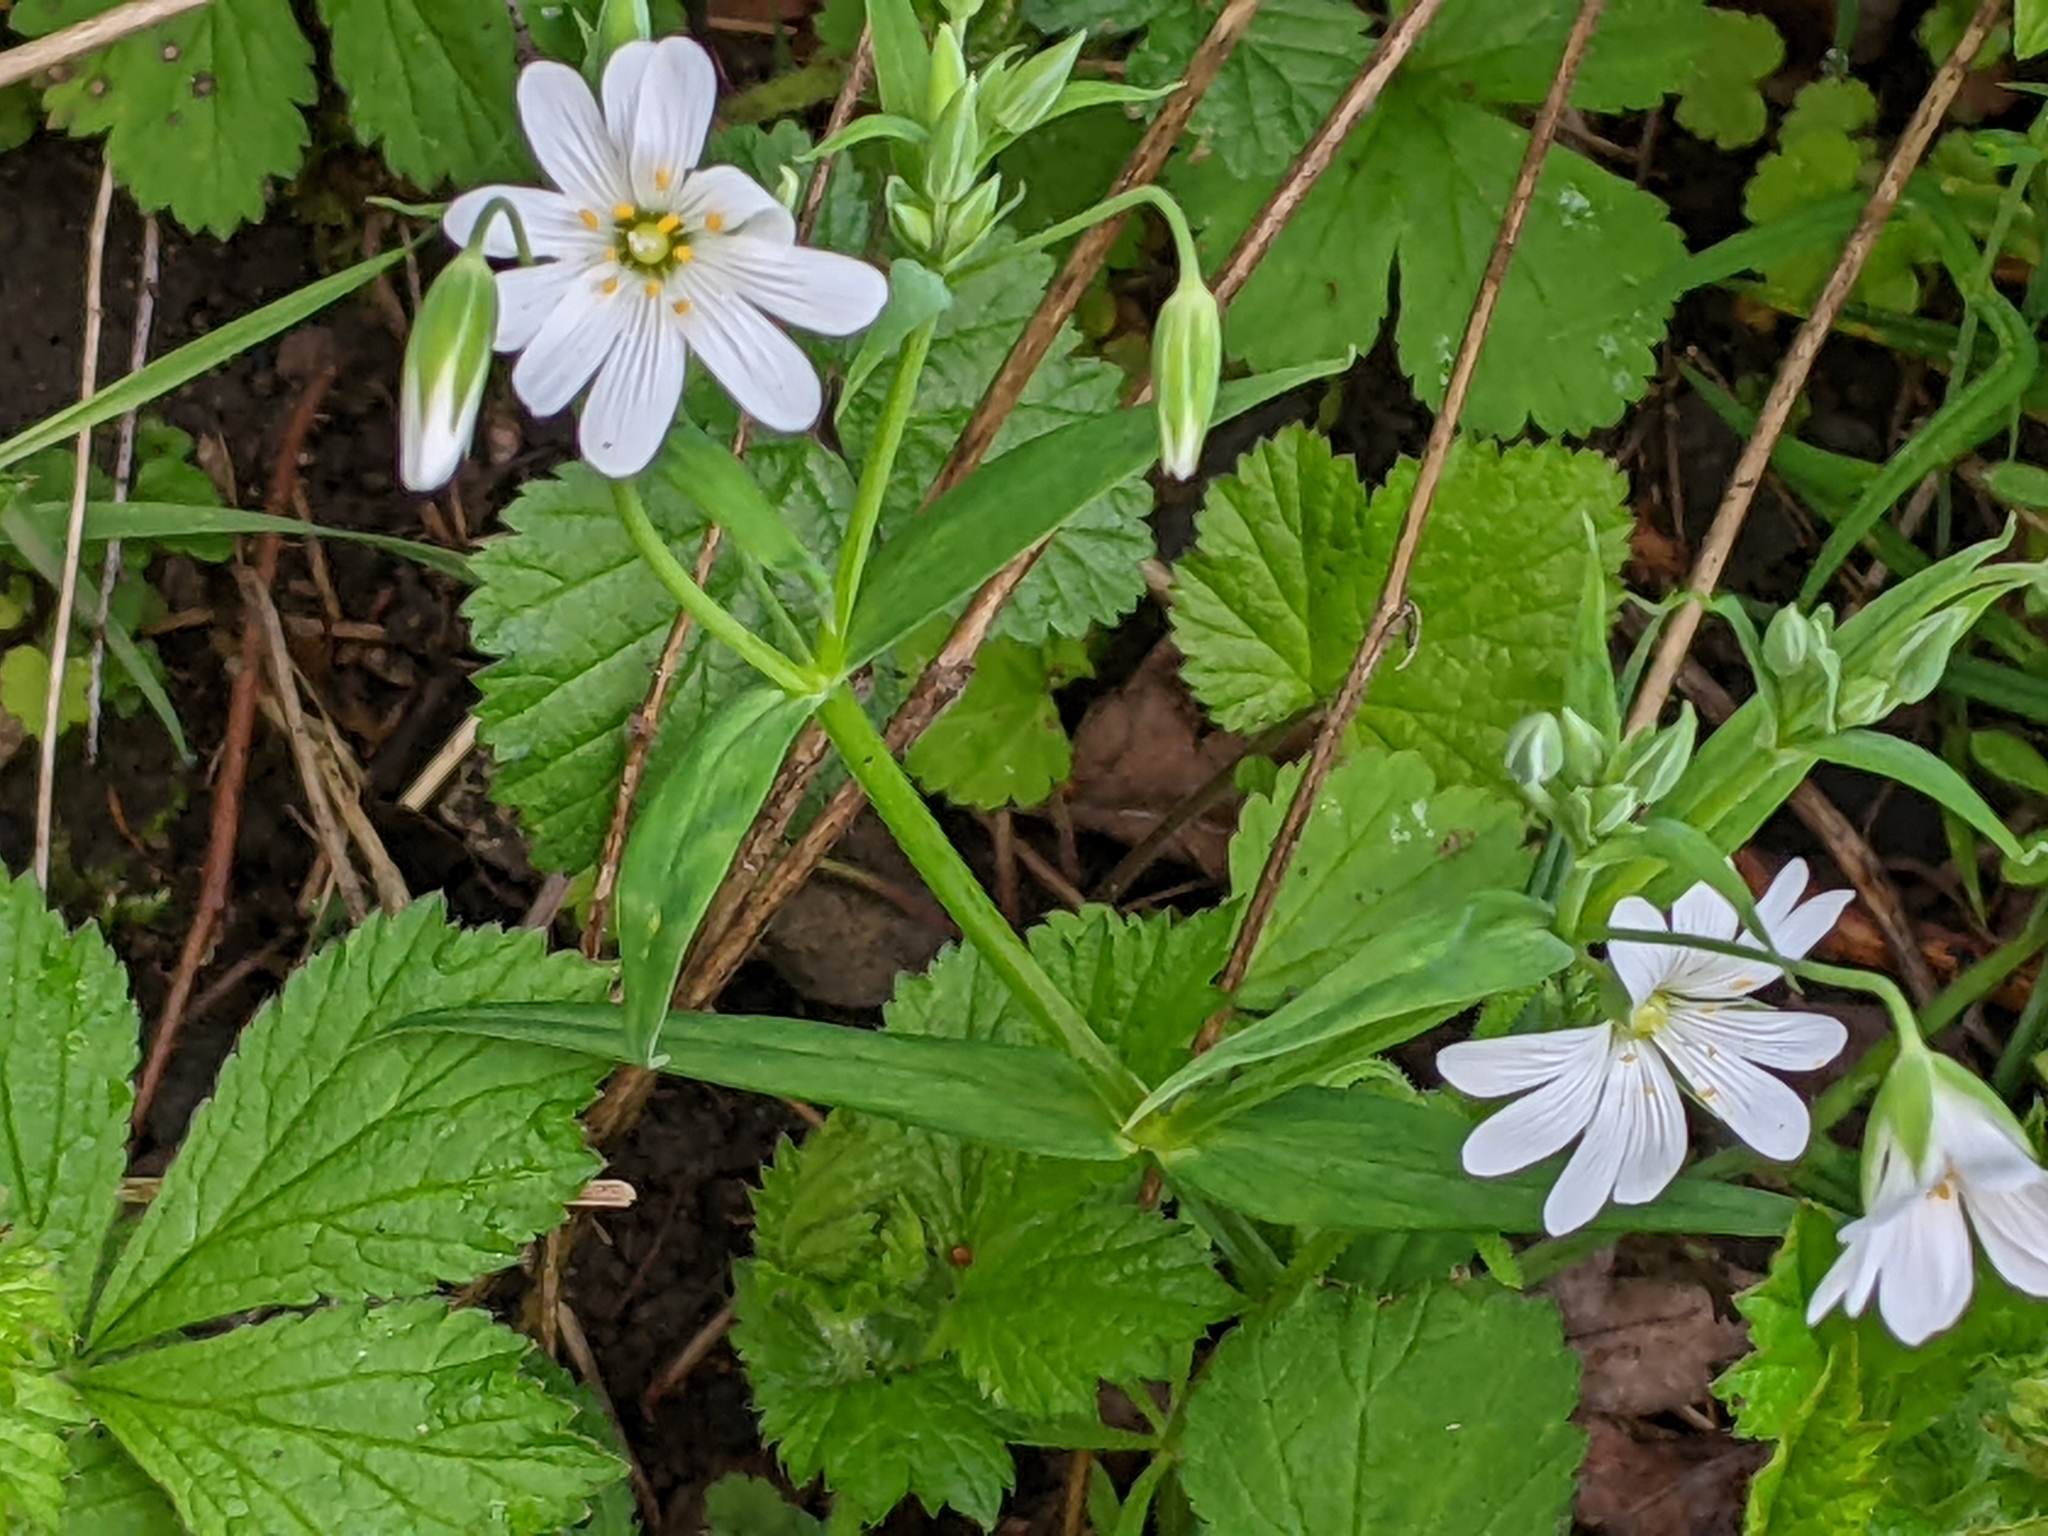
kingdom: Plantae
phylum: Tracheophyta
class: Magnoliopsida
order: Caryophyllales
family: Caryophyllaceae
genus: Rabelera
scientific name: Rabelera holostea
